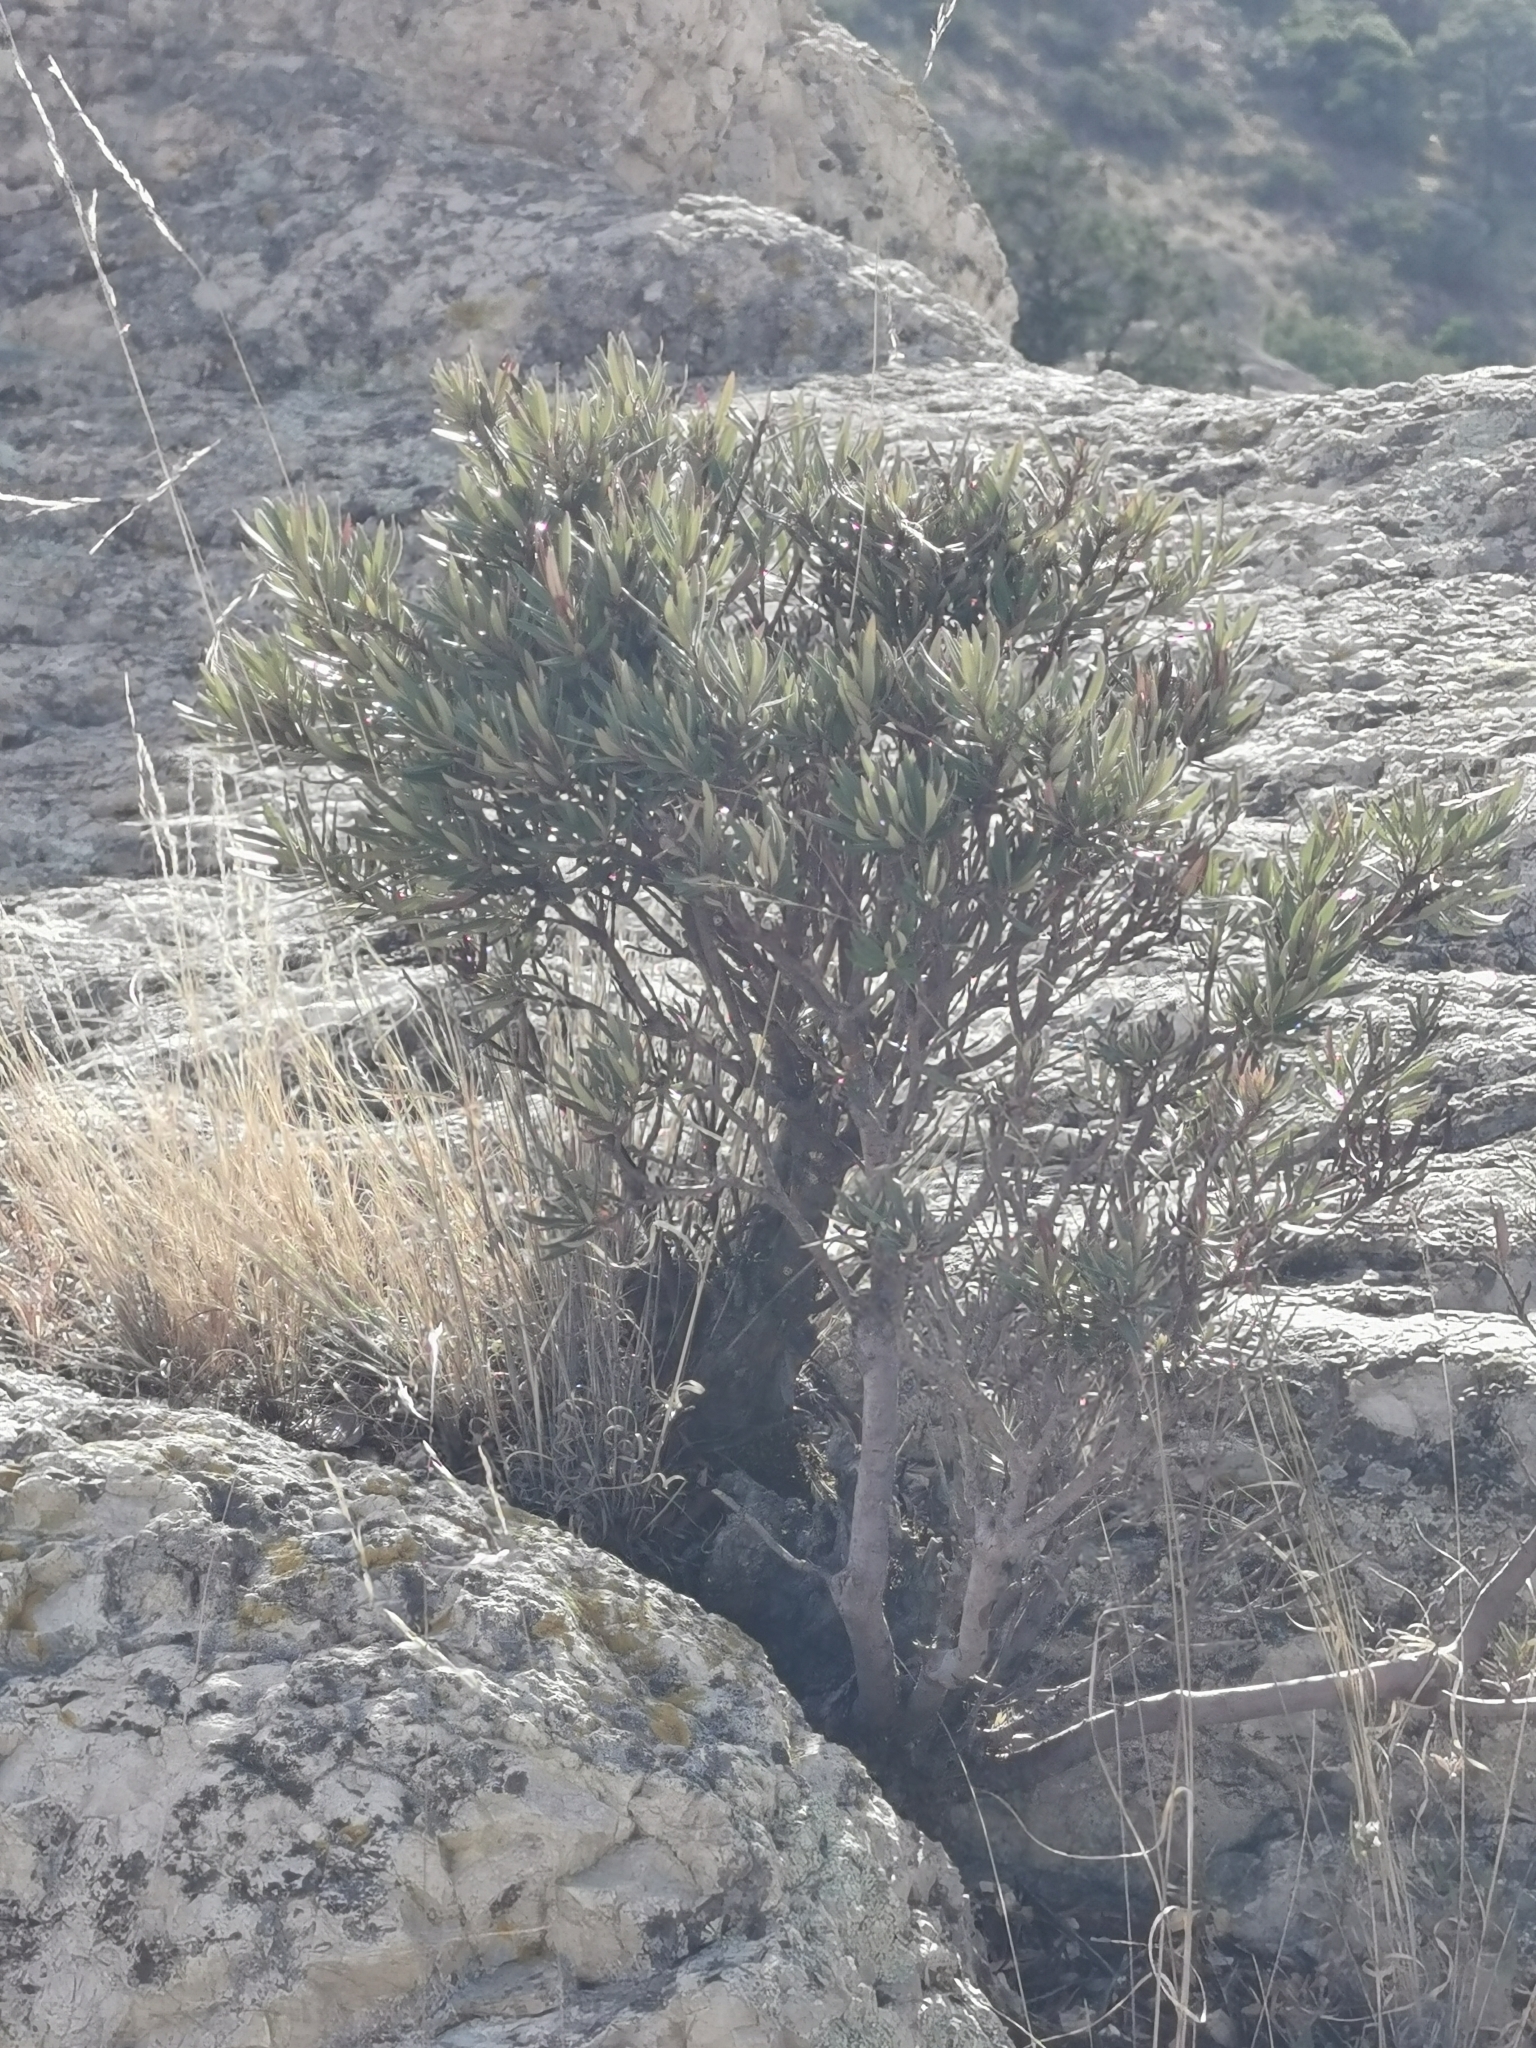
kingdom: Plantae
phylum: Tracheophyta
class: Magnoliopsida
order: Ericales
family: Ericaceae
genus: Comarostaphylis
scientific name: Comarostaphylis polifolia
